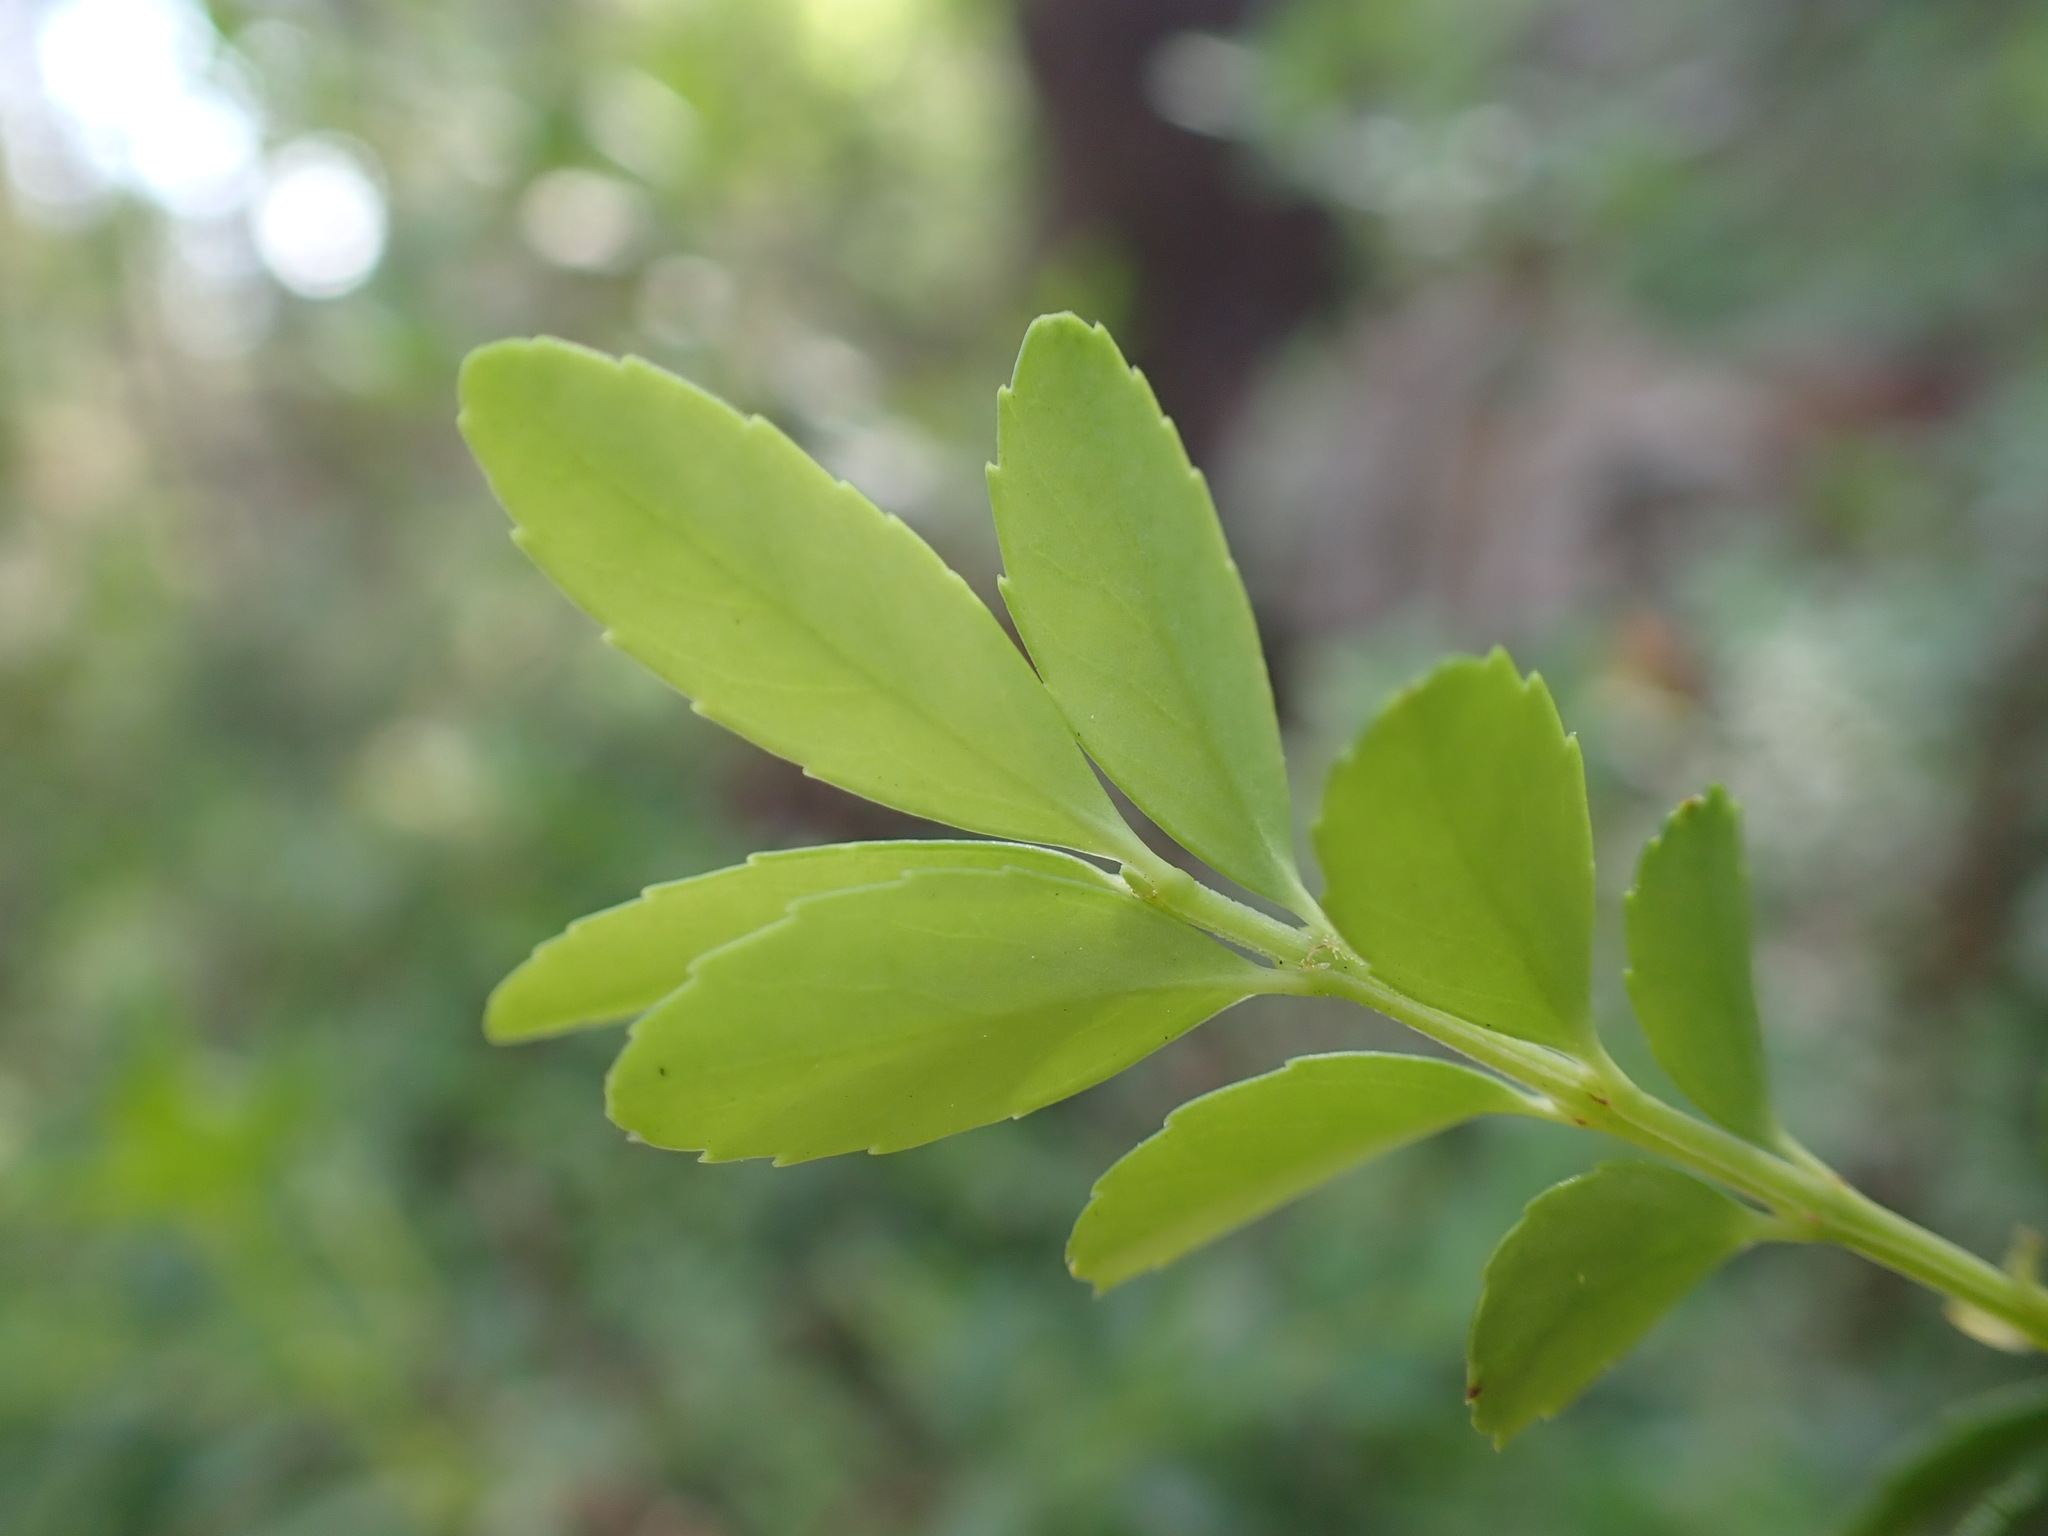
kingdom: Plantae
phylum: Tracheophyta
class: Magnoliopsida
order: Celastrales
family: Celastraceae
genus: Paxistima
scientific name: Paxistima myrsinites
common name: Mountain-lover
